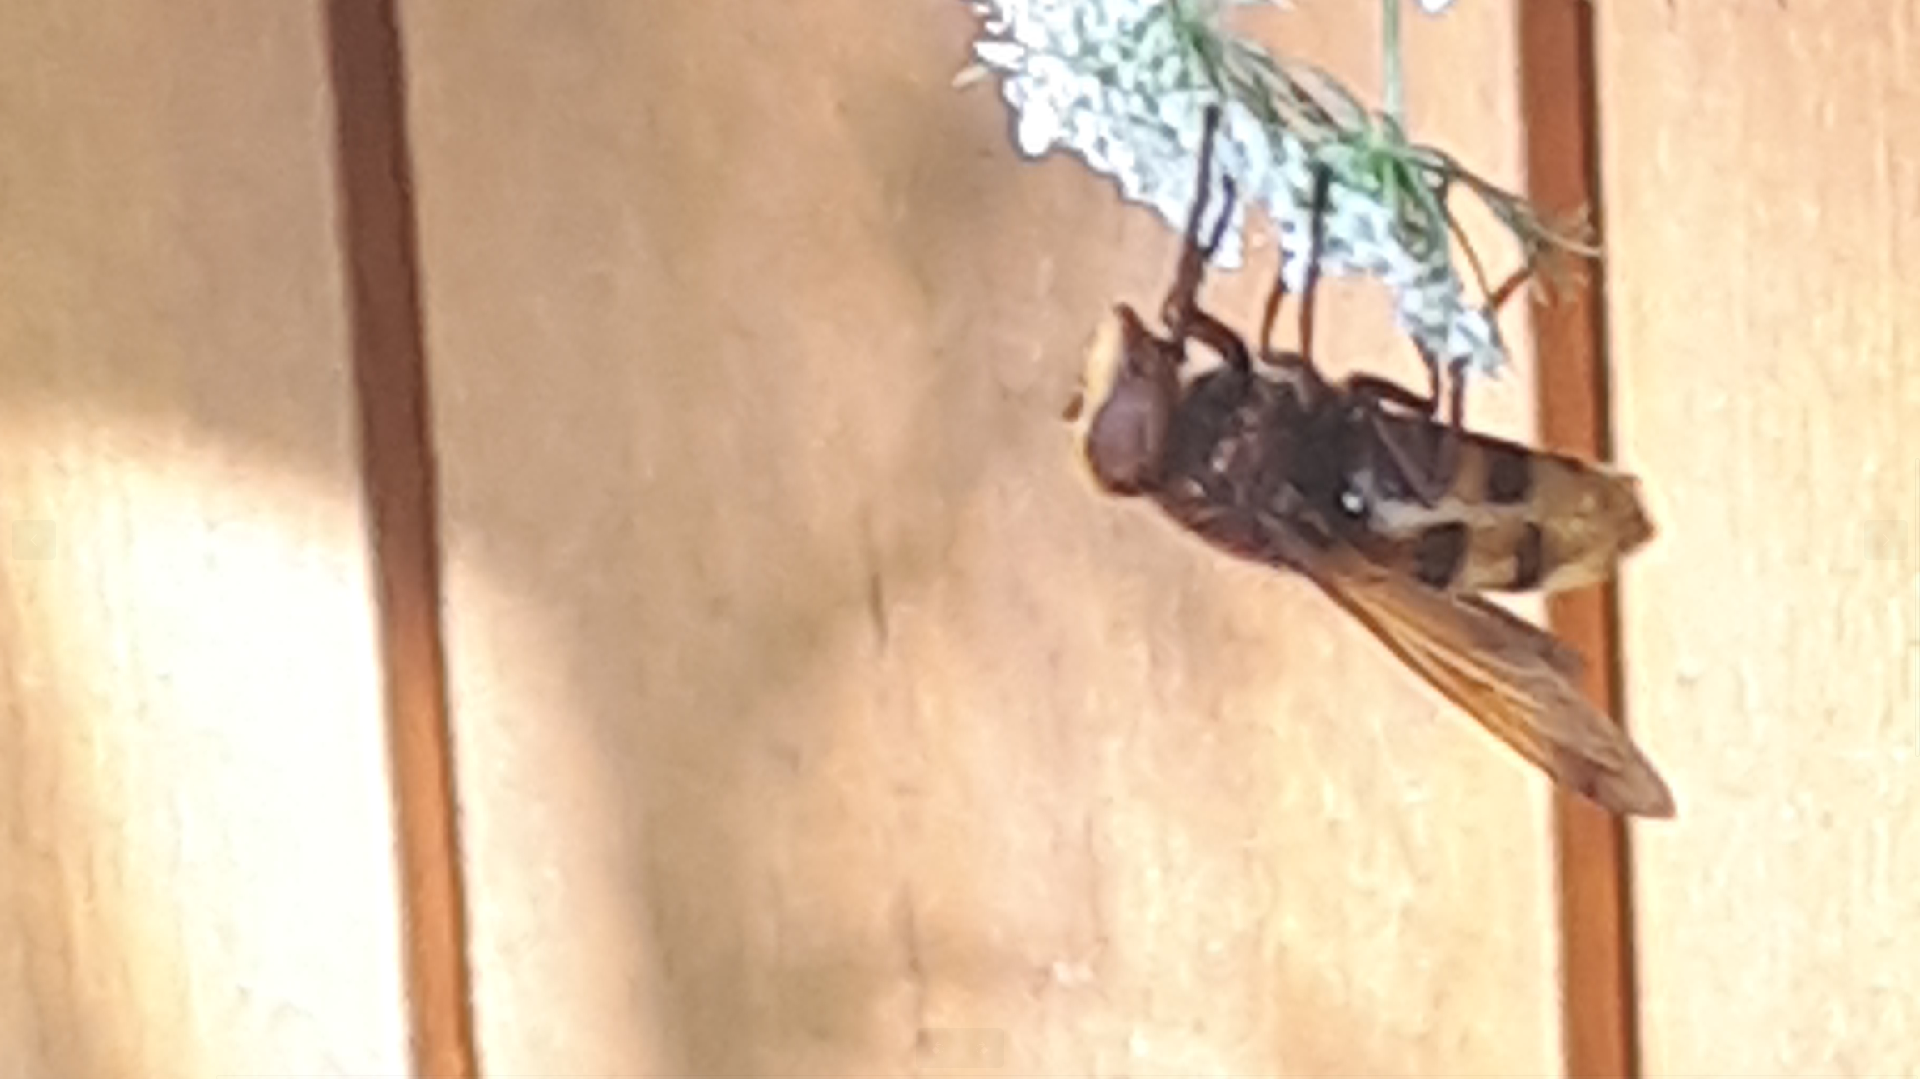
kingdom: Animalia
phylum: Arthropoda
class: Insecta
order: Diptera
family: Syrphidae
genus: Volucella
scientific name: Volucella zonaria
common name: Hornet hoverfly
